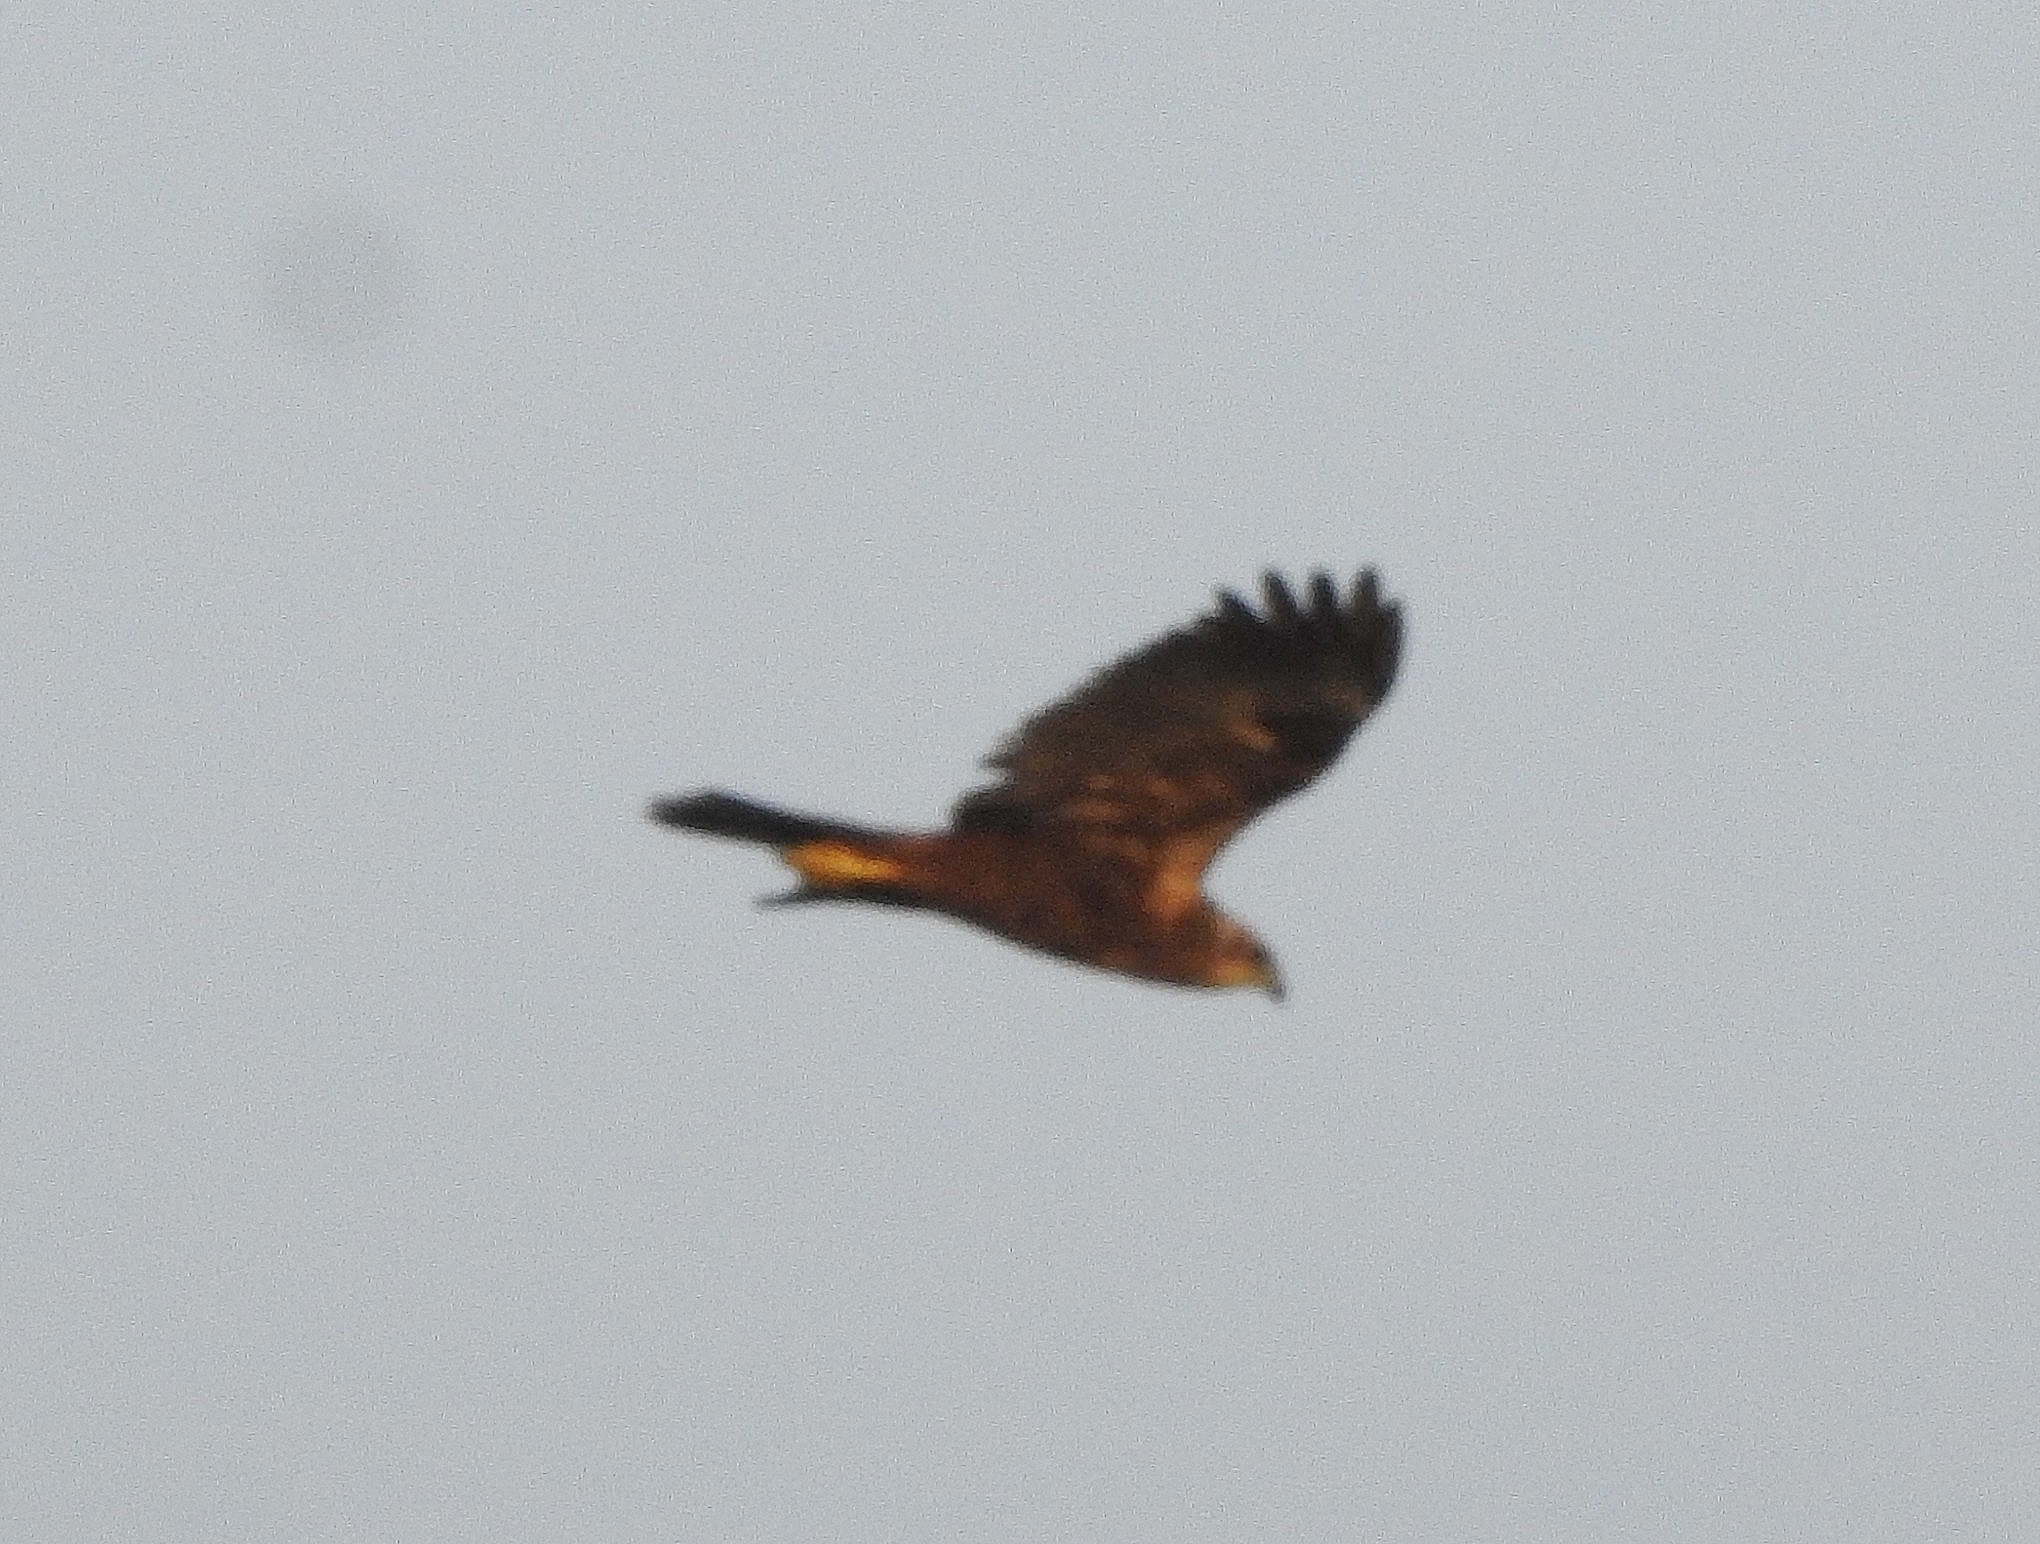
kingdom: Animalia
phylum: Chordata
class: Aves
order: Accipitriformes
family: Accipitridae
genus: Circus
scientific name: Circus aeruginosus
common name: Western marsh harrier
